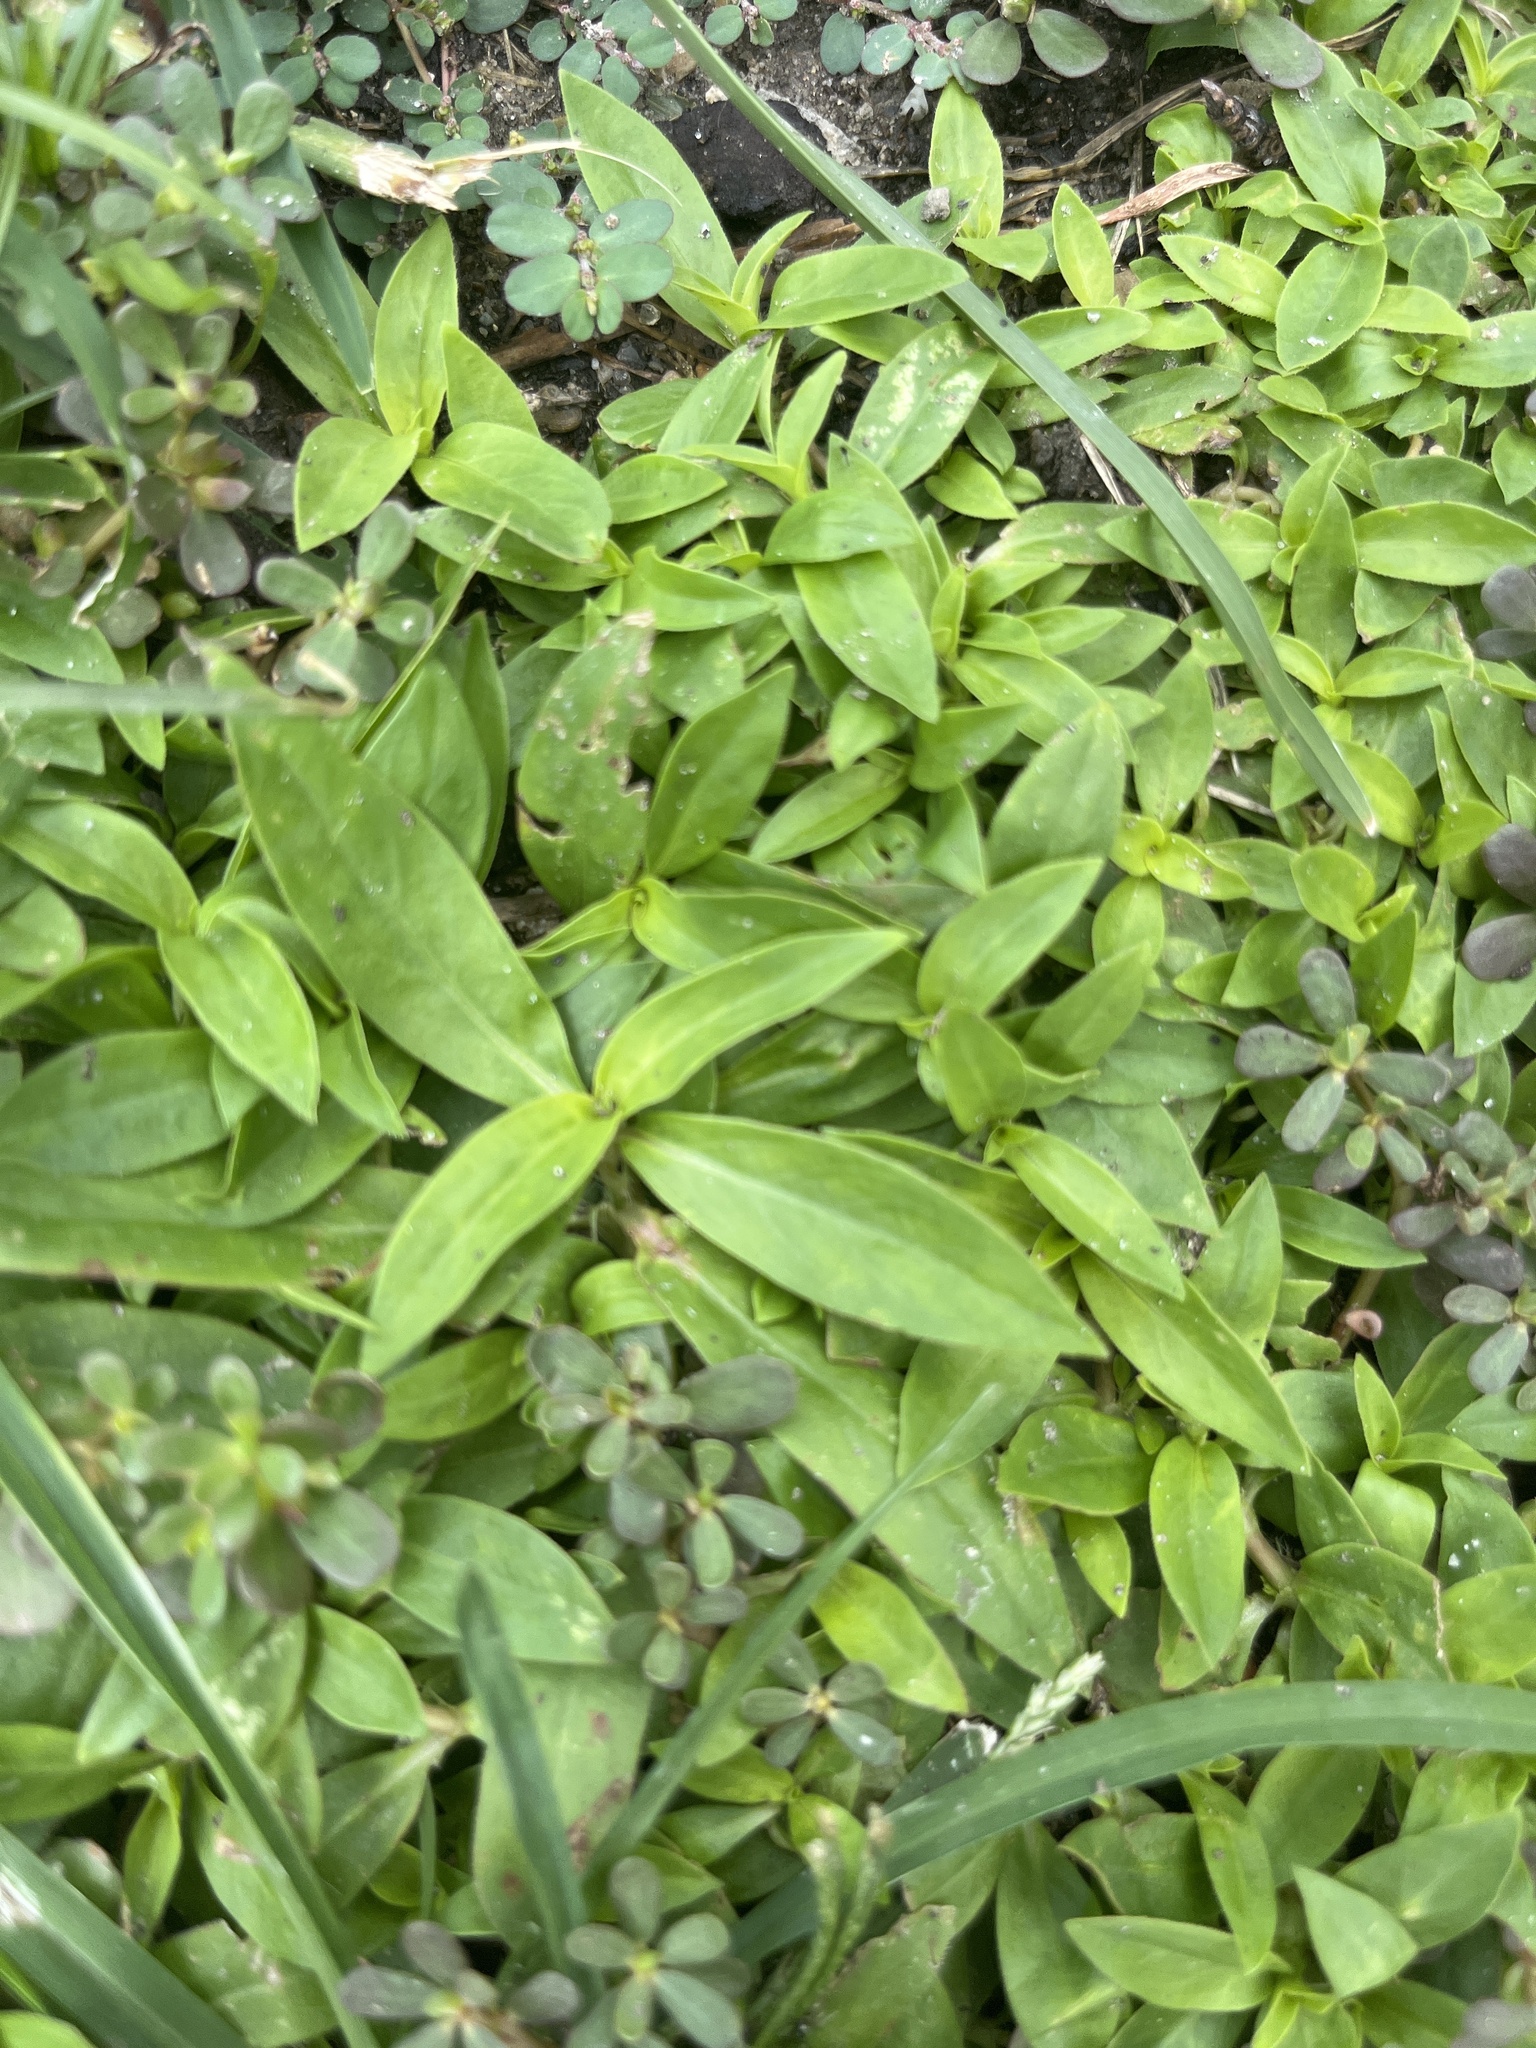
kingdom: Plantae
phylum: Tracheophyta
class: Magnoliopsida
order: Gentianales
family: Rubiaceae
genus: Diodia
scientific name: Diodia virginiana
